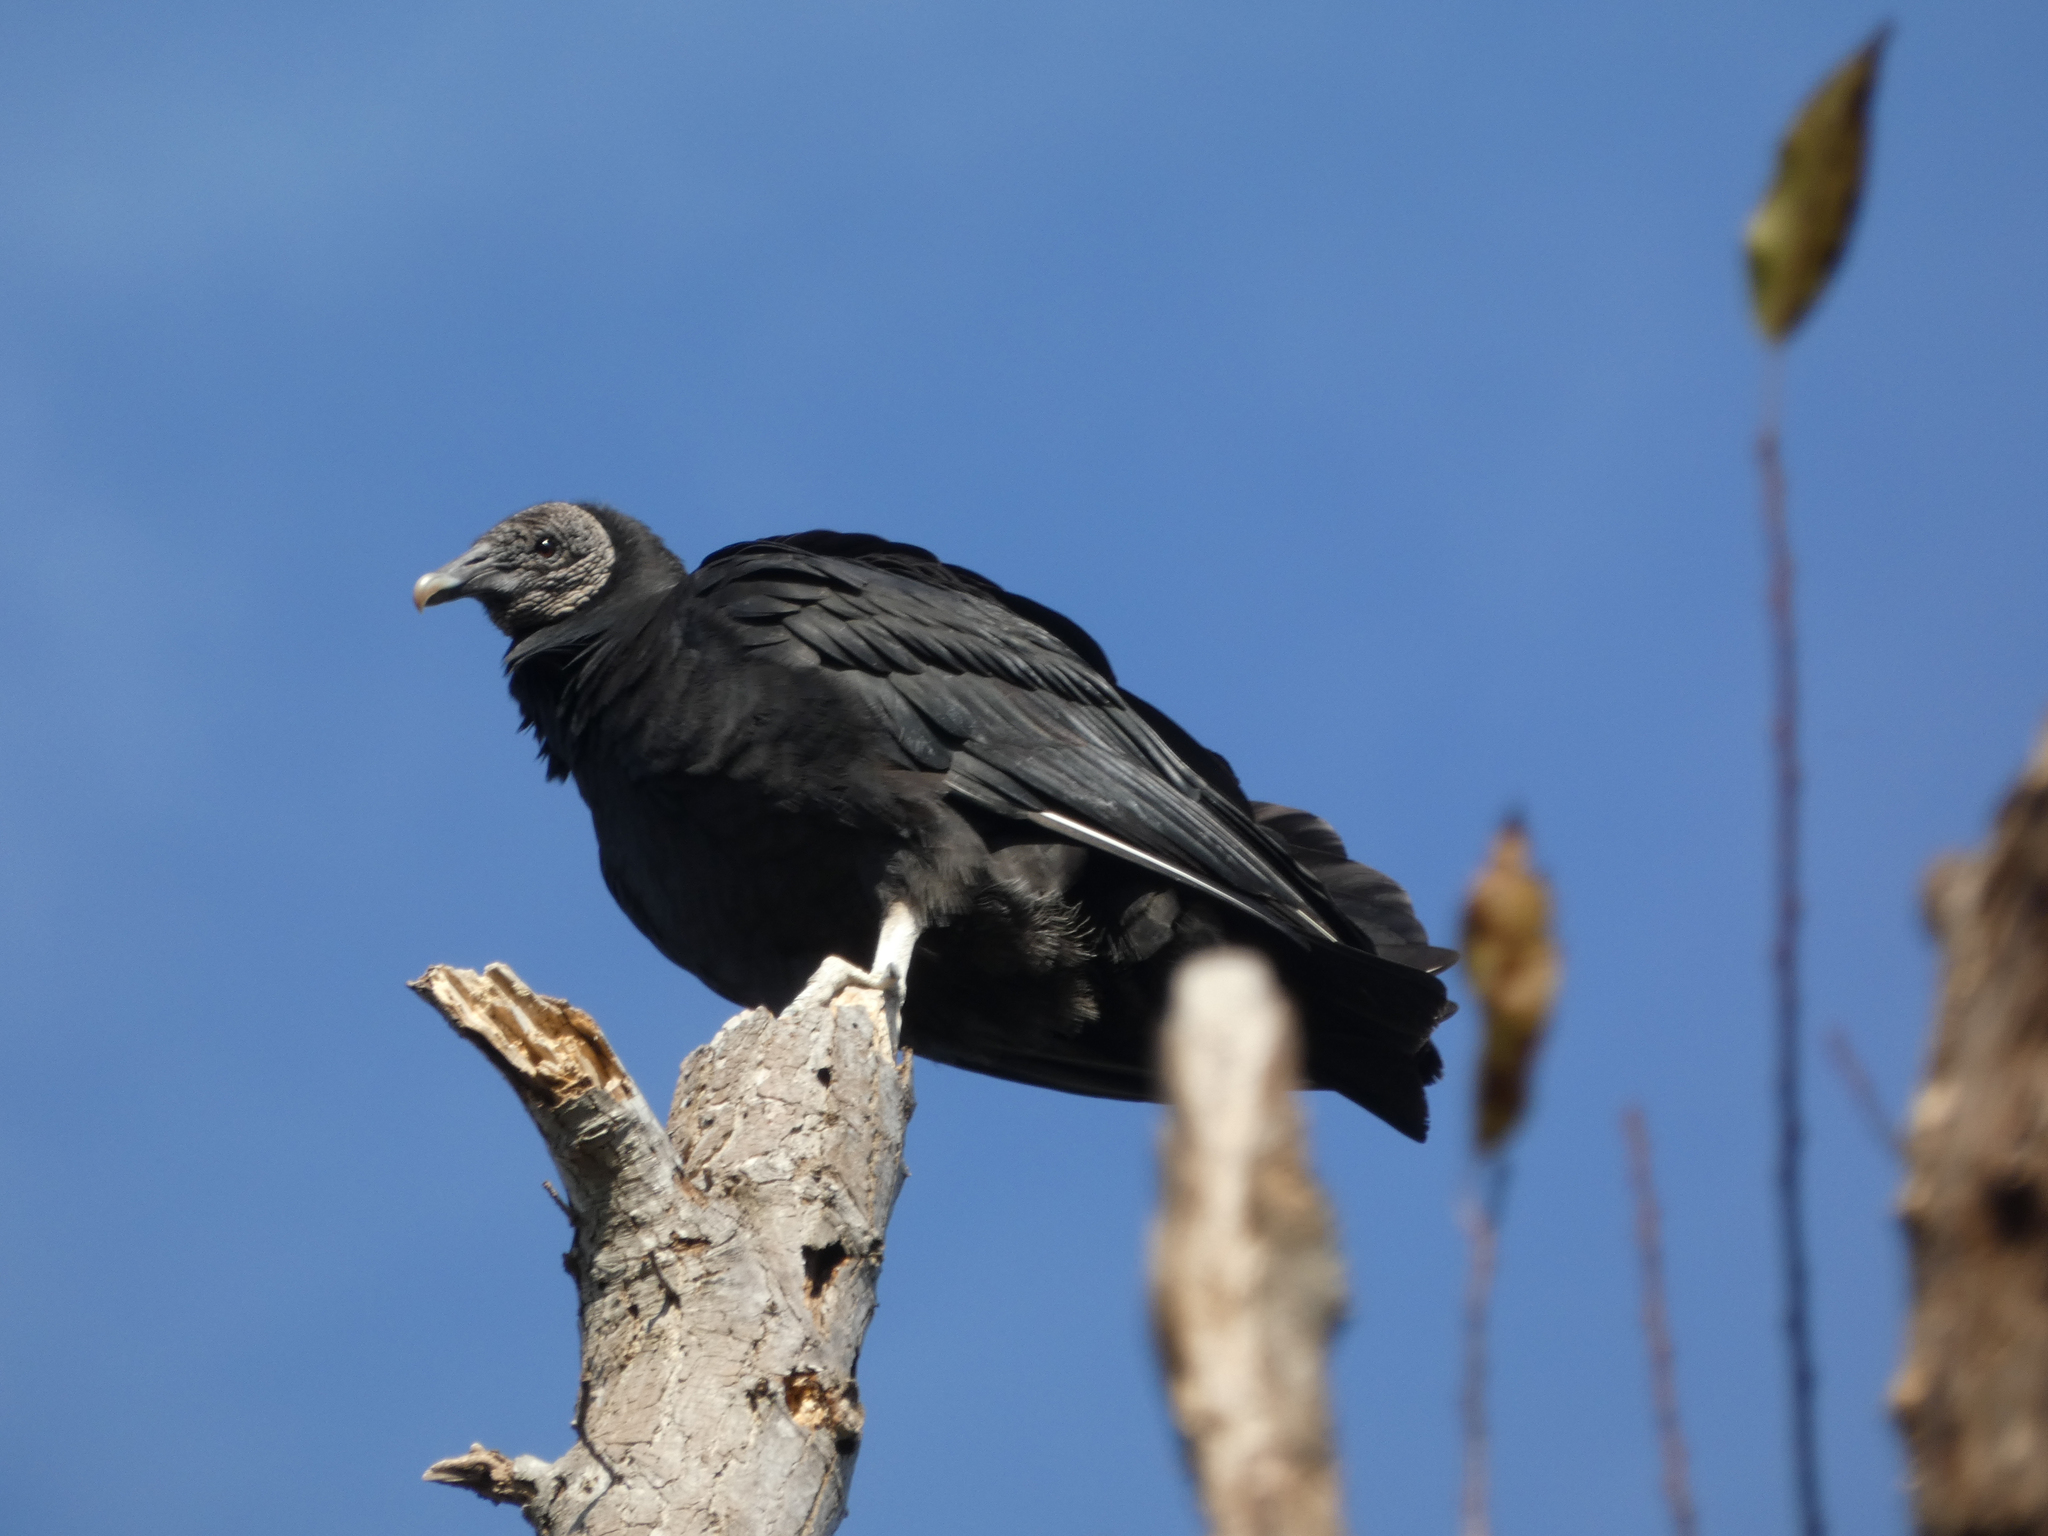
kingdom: Animalia
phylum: Chordata
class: Aves
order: Accipitriformes
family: Cathartidae
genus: Coragyps
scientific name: Coragyps atratus
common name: Black vulture
